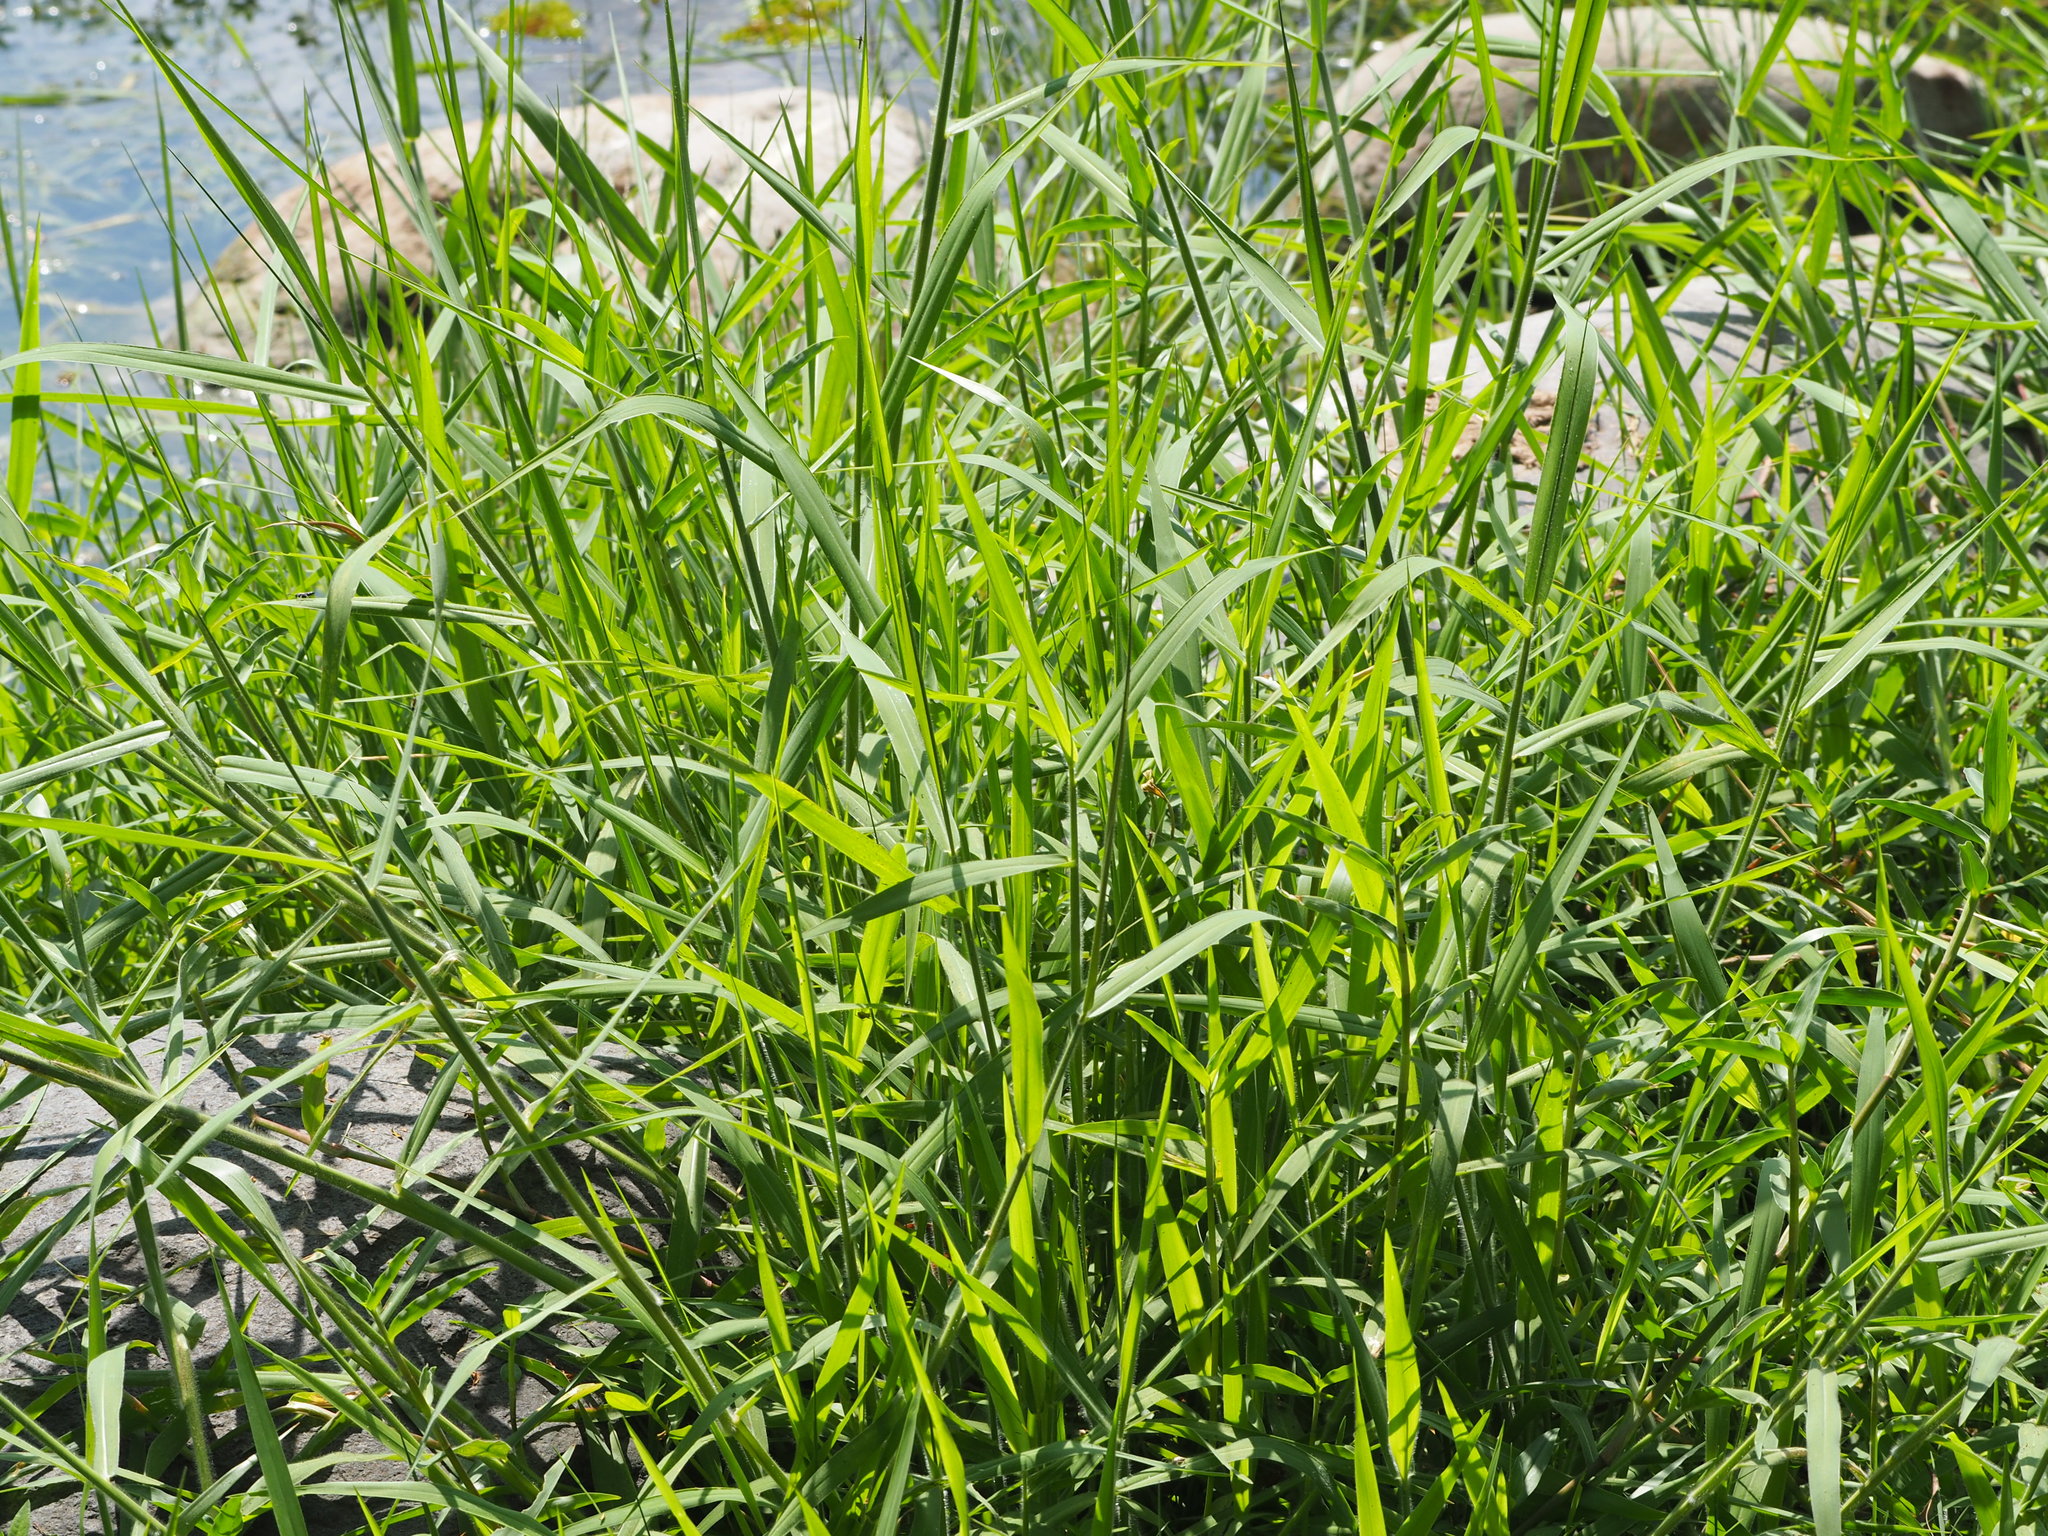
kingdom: Plantae
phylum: Tracheophyta
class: Liliopsida
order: Poales
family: Poaceae
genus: Urochloa
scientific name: Urochloa mutica
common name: Para grass
